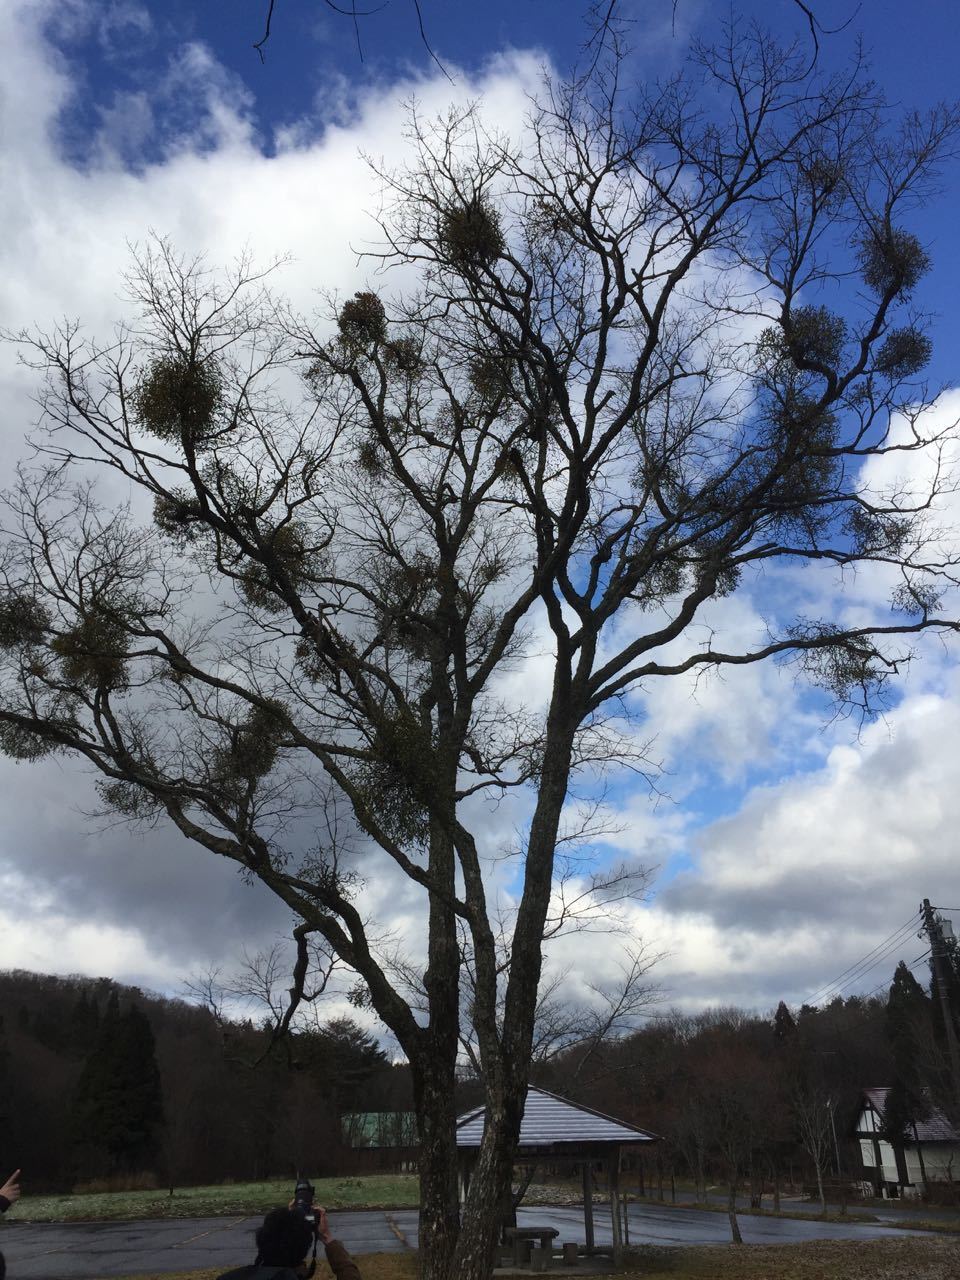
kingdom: Plantae
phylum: Tracheophyta
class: Magnoliopsida
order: Santalales
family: Viscaceae
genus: Viscum
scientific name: Viscum album
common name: Mistletoe
